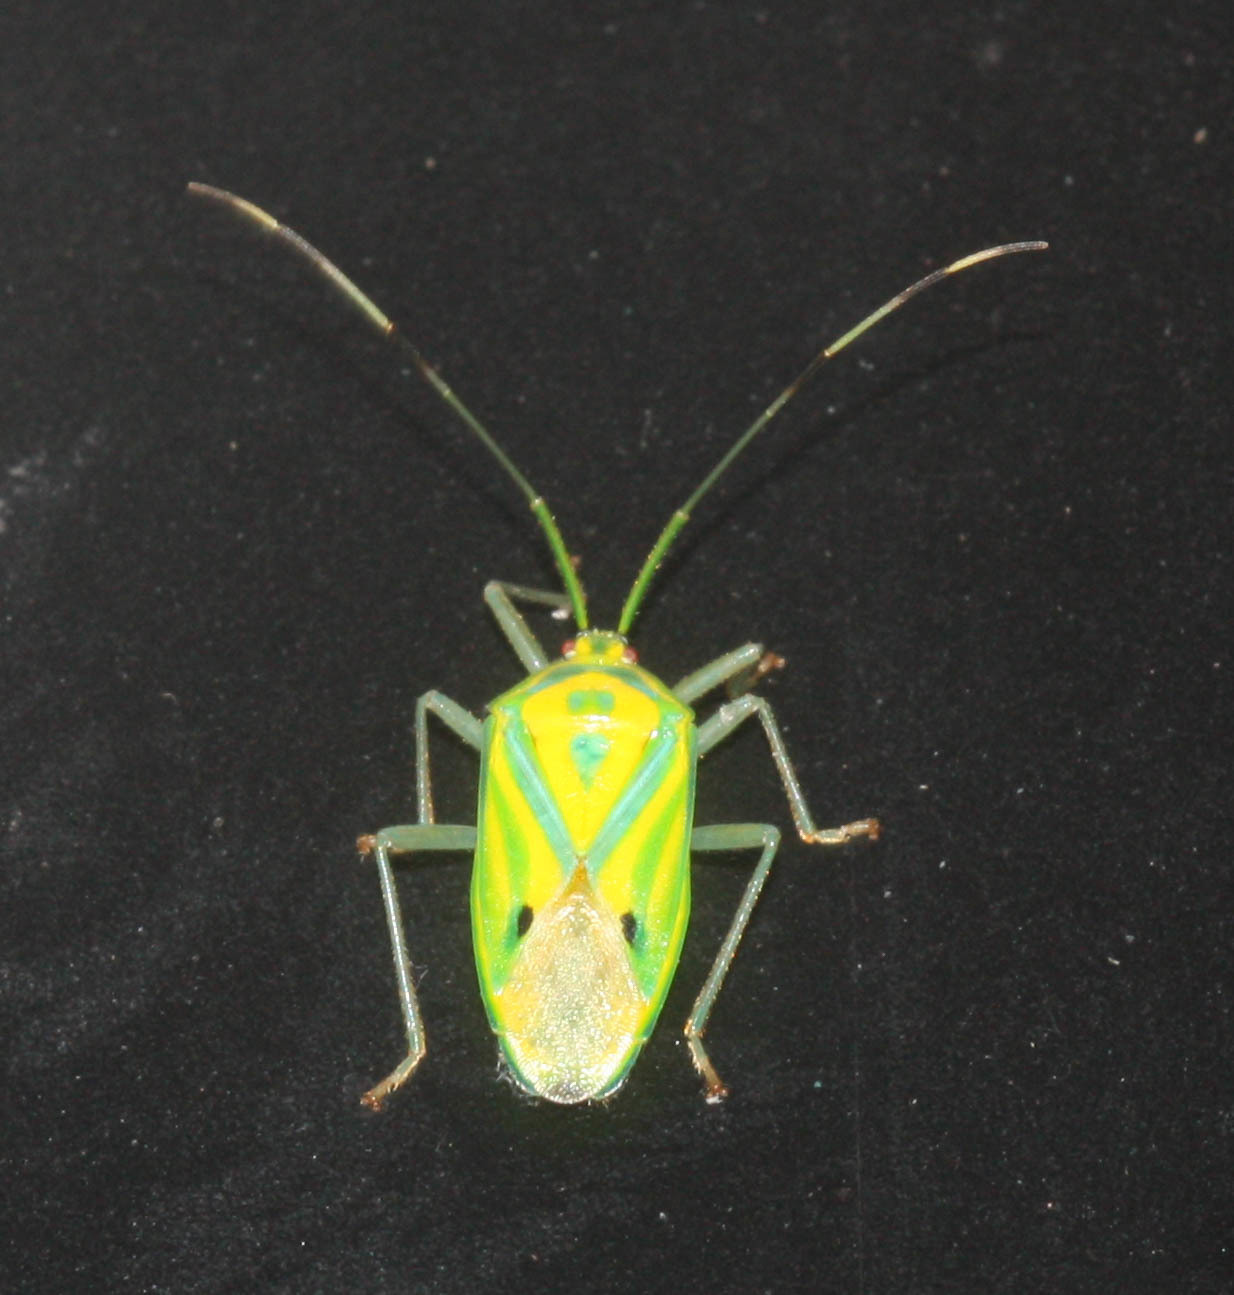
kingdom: Animalia
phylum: Arthropoda
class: Insecta
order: Hemiptera
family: Urostylididae
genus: Urolabida
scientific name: Urolabida
